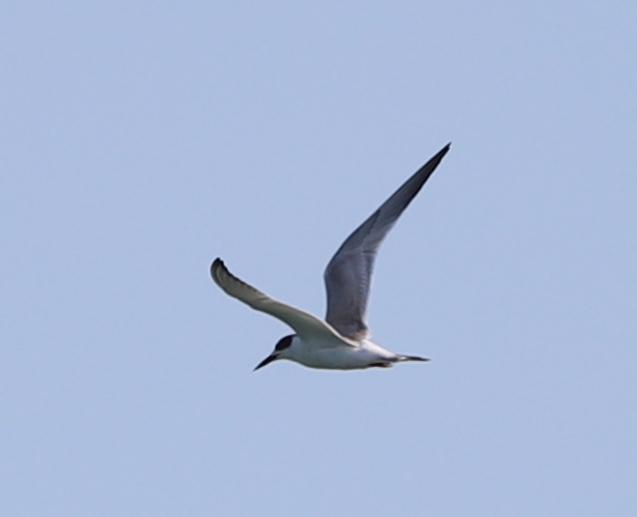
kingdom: Animalia
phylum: Chordata
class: Aves
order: Charadriiformes
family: Laridae
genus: Sterna
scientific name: Sterna forsteri
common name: Forster's tern
